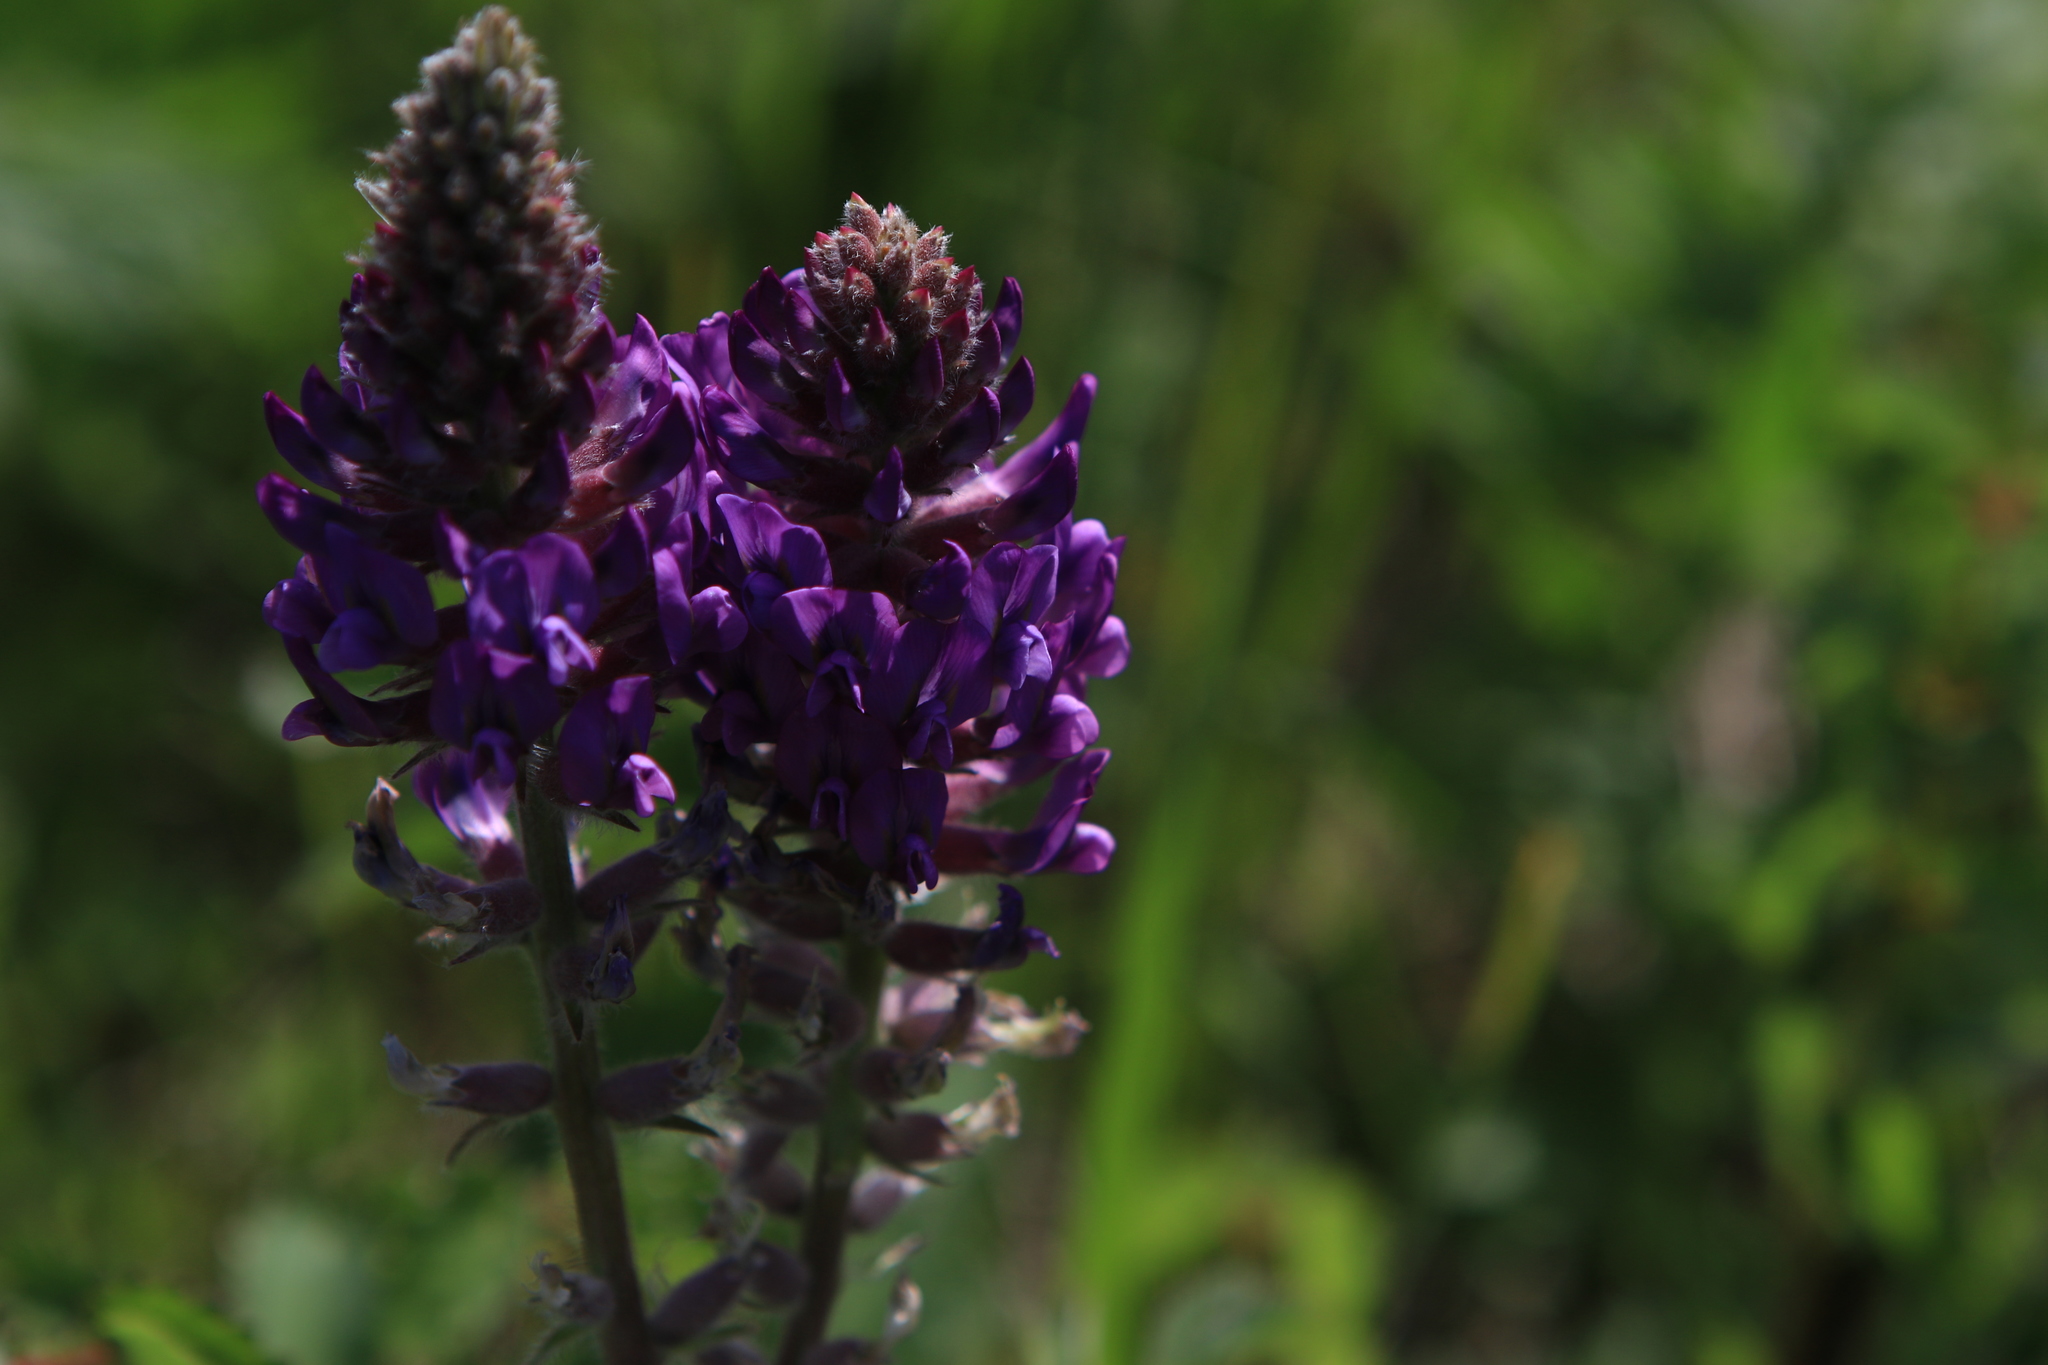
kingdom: Plantae
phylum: Tracheophyta
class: Magnoliopsida
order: Fabales
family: Fabaceae
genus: Oxytropis
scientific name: Oxytropis campanulata
